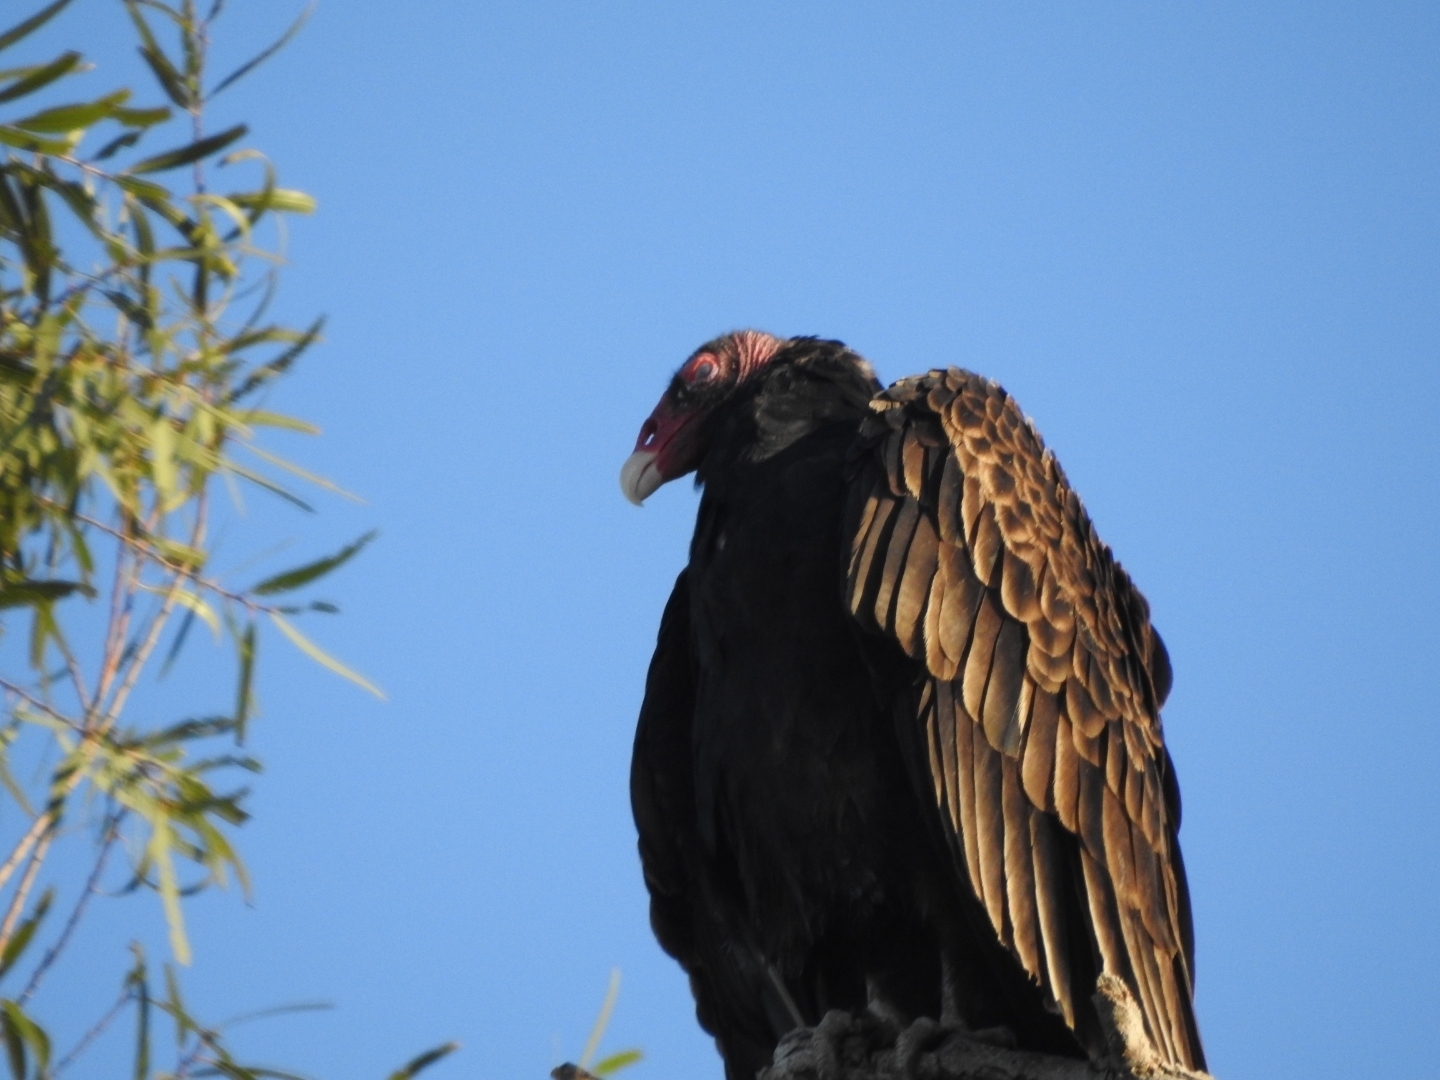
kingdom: Animalia
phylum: Chordata
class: Aves
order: Accipitriformes
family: Cathartidae
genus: Cathartes
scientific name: Cathartes aura
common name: Turkey vulture
